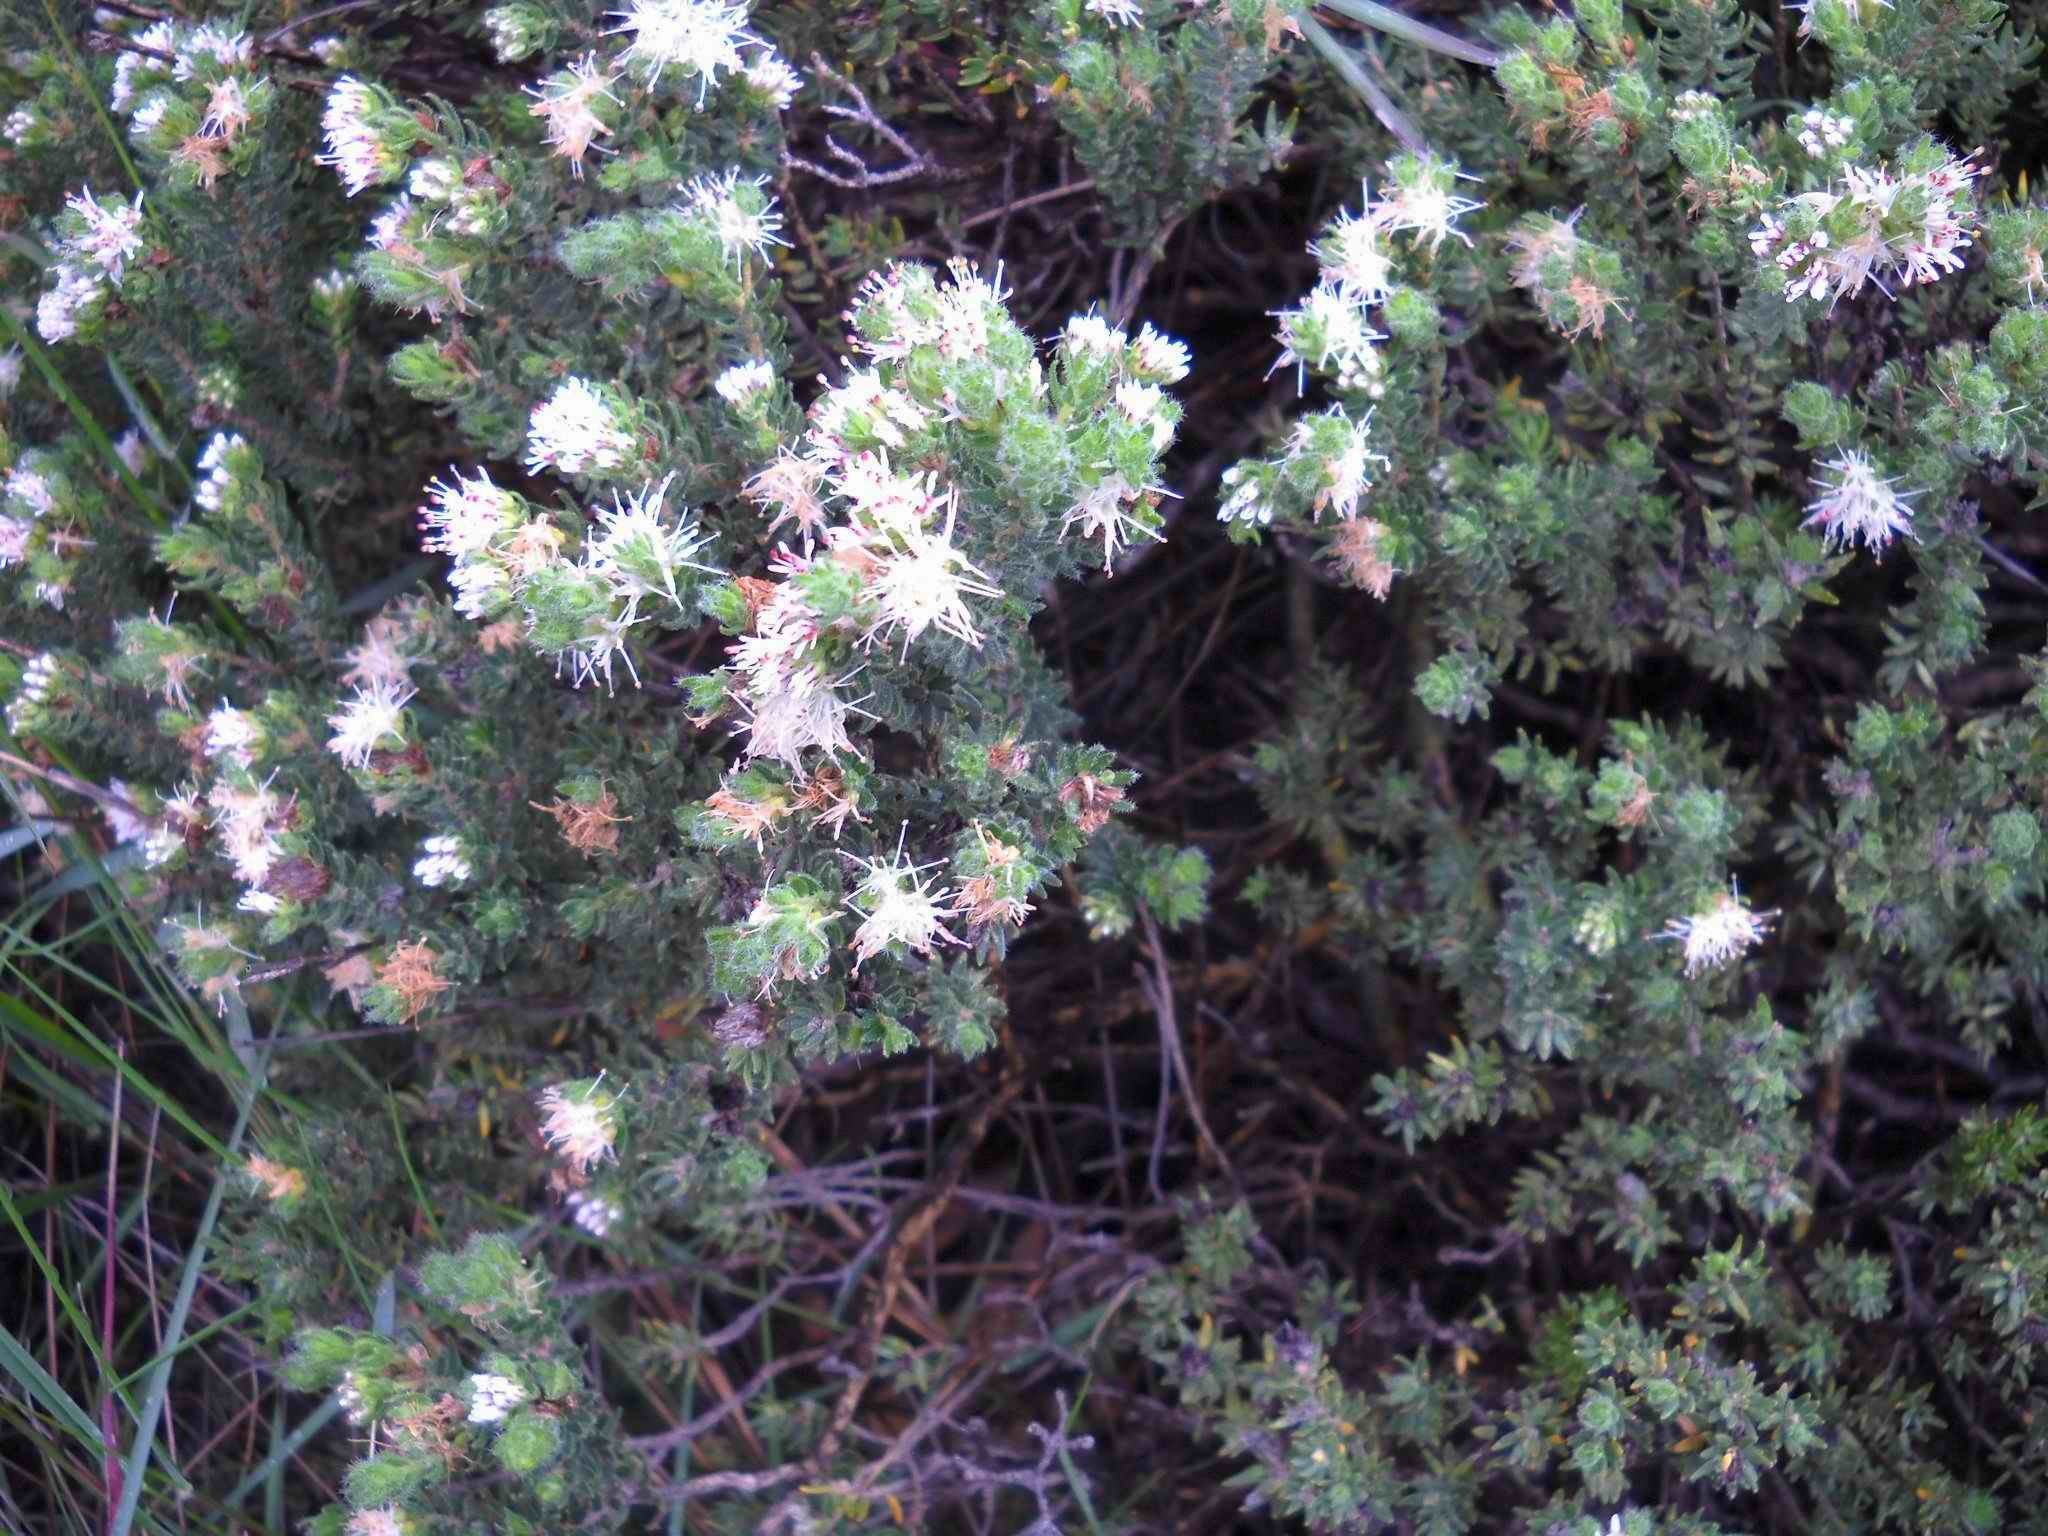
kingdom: Plantae
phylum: Tracheophyta
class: Magnoliopsida
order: Sapindales
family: Rutaceae
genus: Agathosma
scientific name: Agathosma
